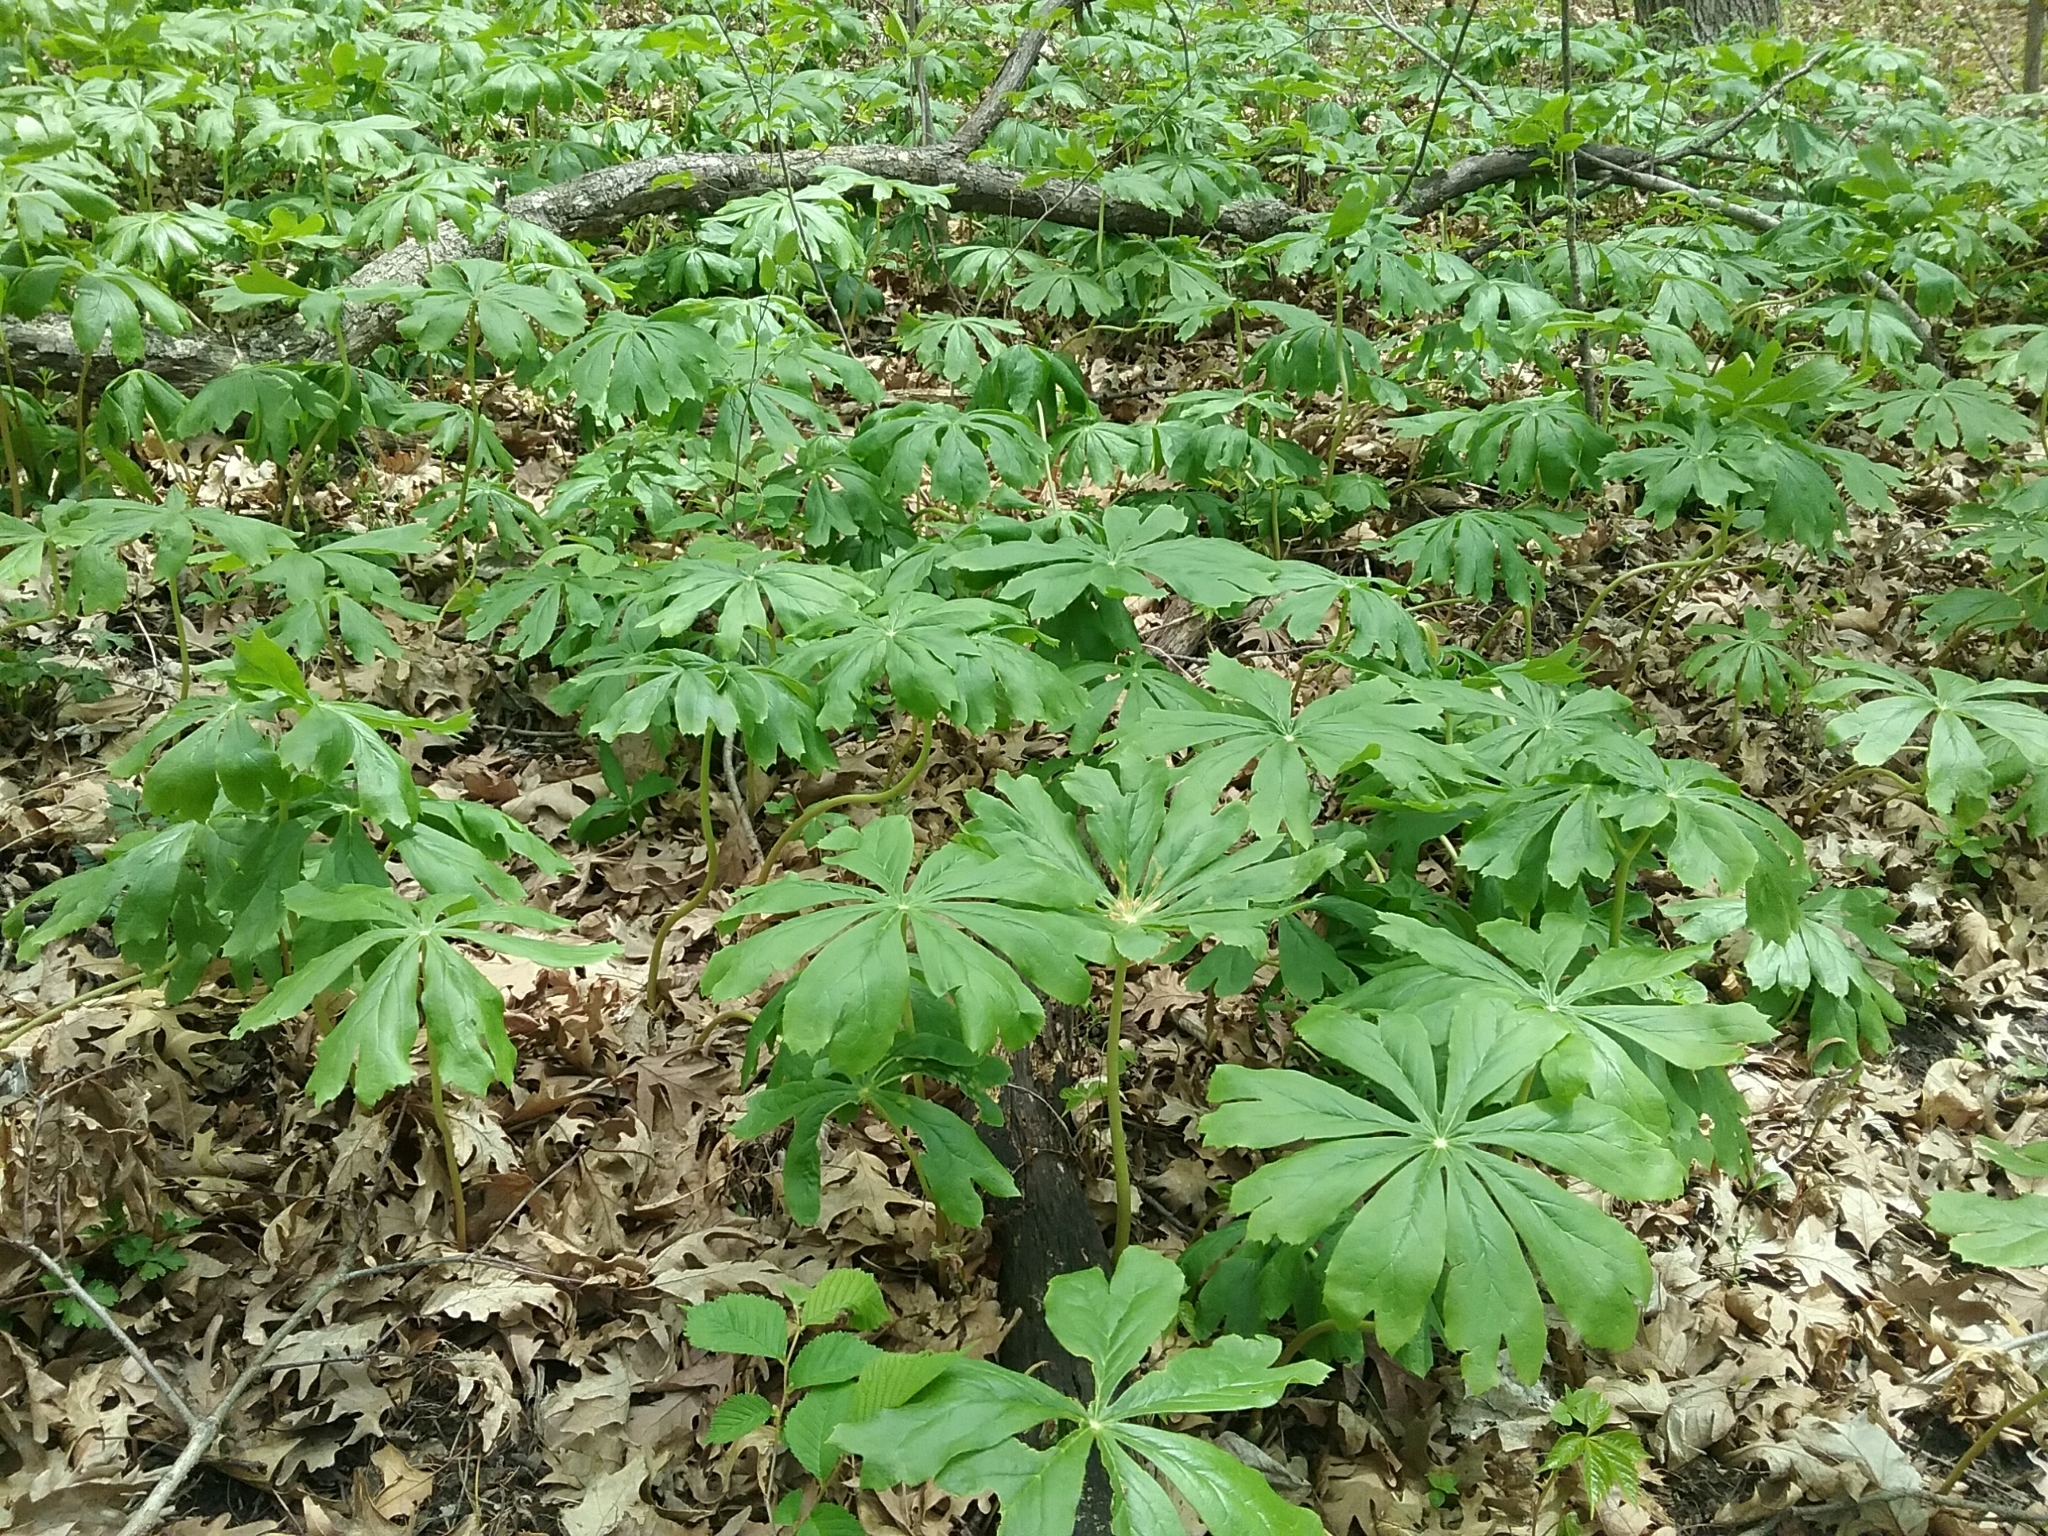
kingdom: Plantae
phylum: Tracheophyta
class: Magnoliopsida
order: Ranunculales
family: Berberidaceae
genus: Podophyllum
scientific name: Podophyllum peltatum
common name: Wild mandrake
